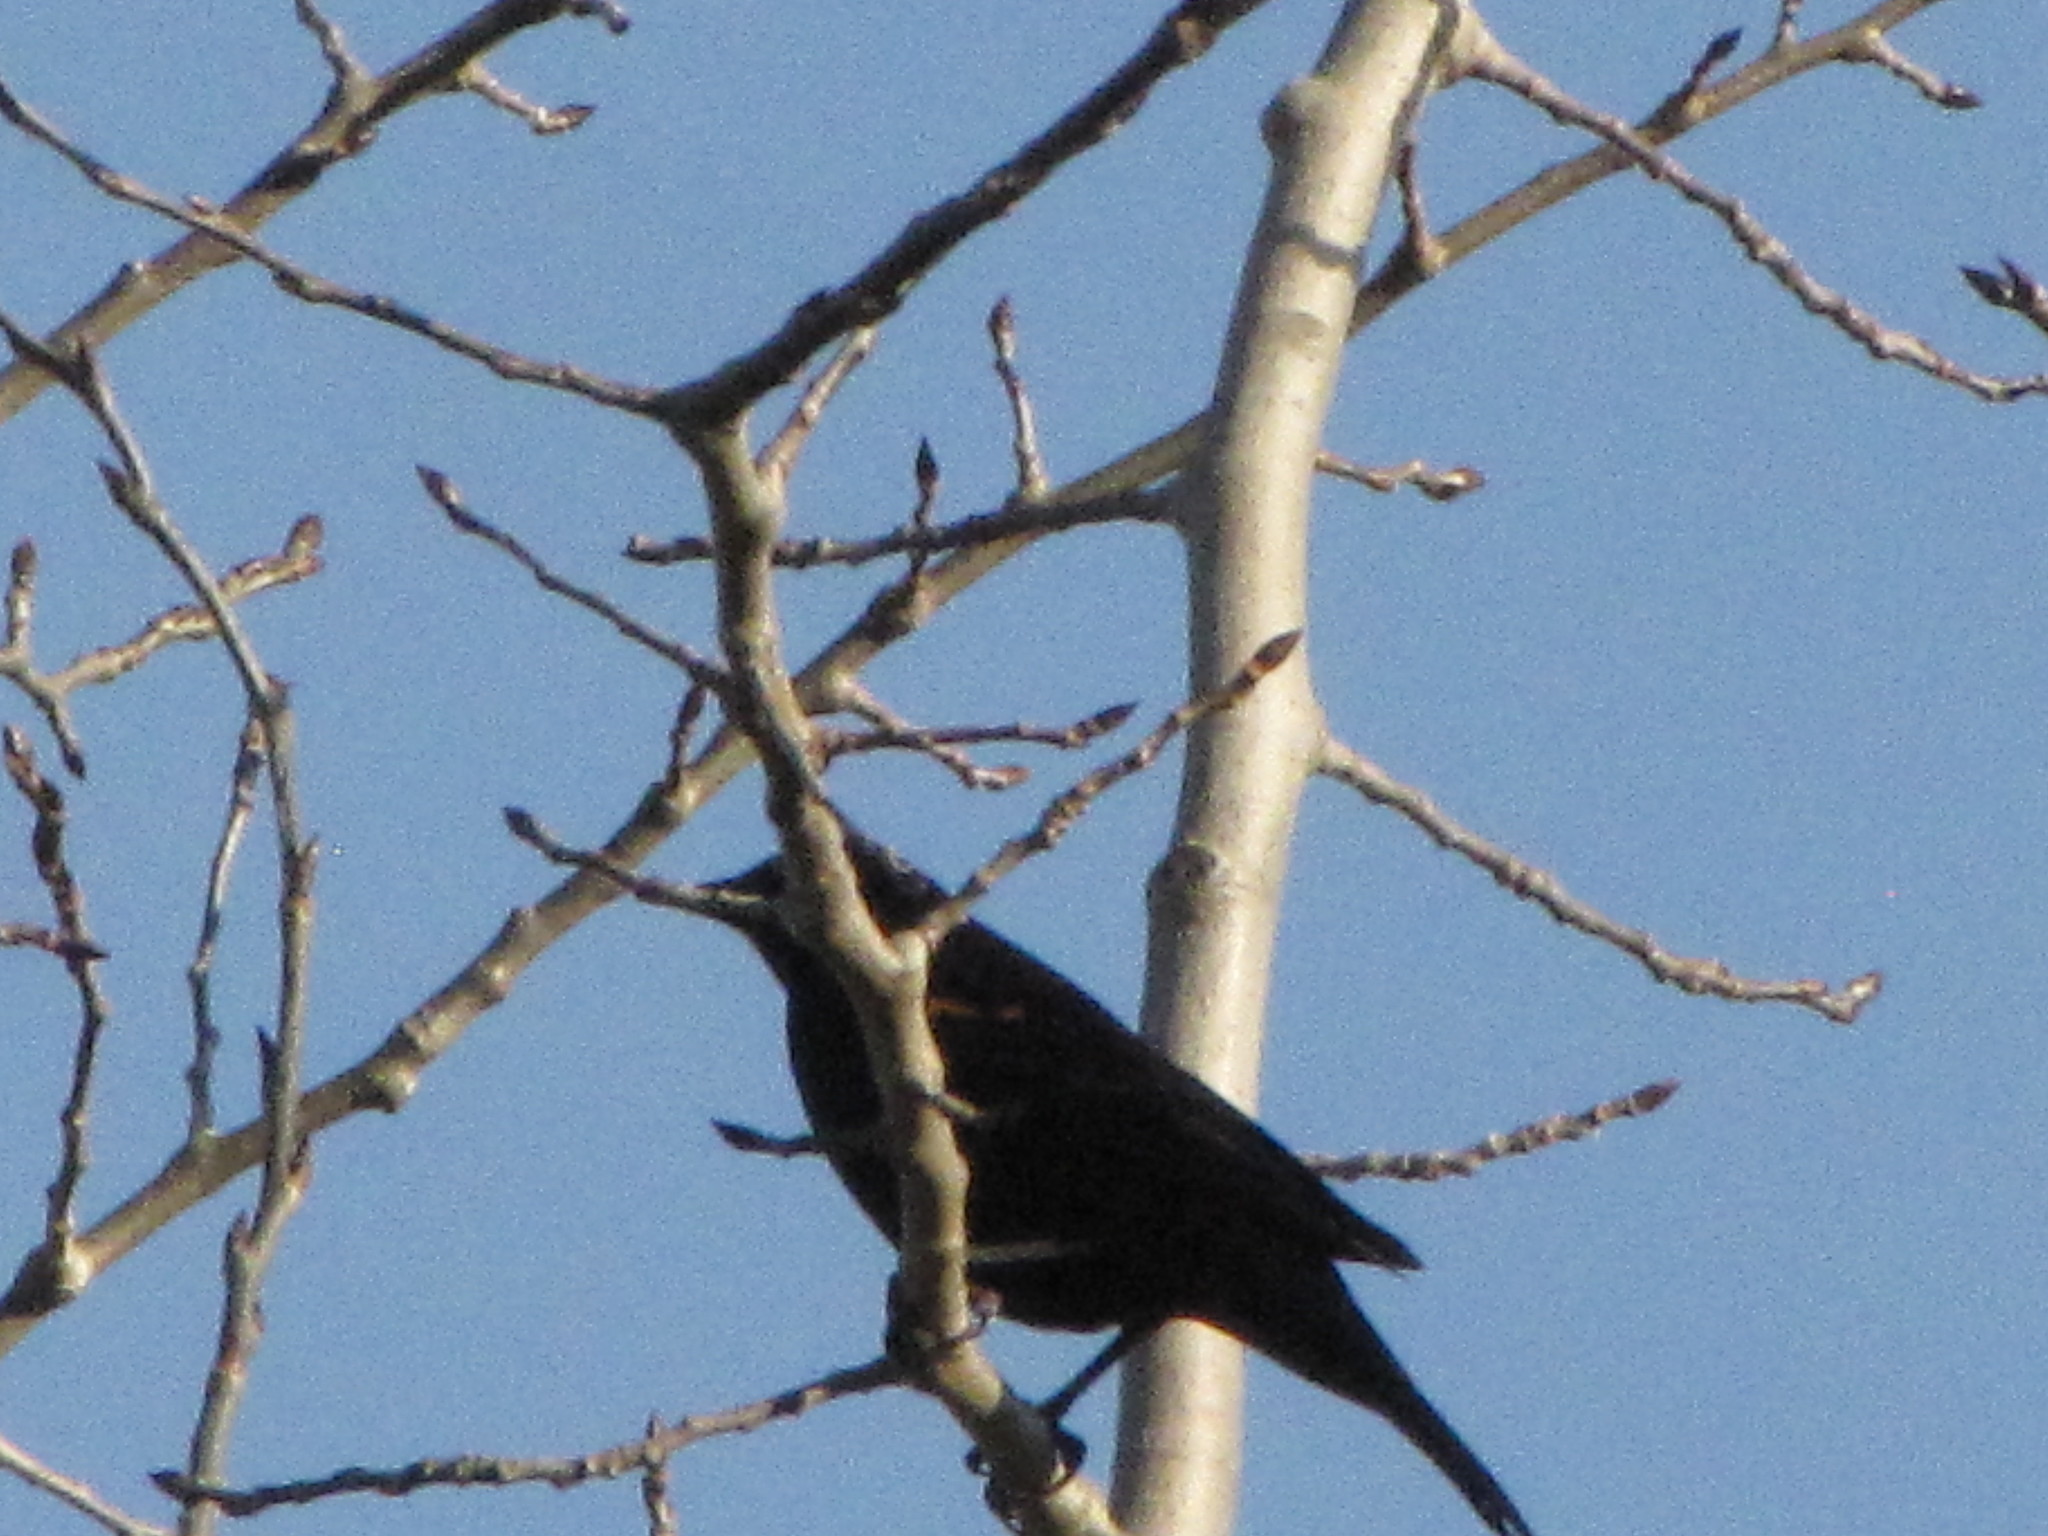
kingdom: Animalia
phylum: Chordata
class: Aves
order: Passeriformes
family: Icteridae
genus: Agelaius
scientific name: Agelaius phoeniceus
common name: Red-winged blackbird
